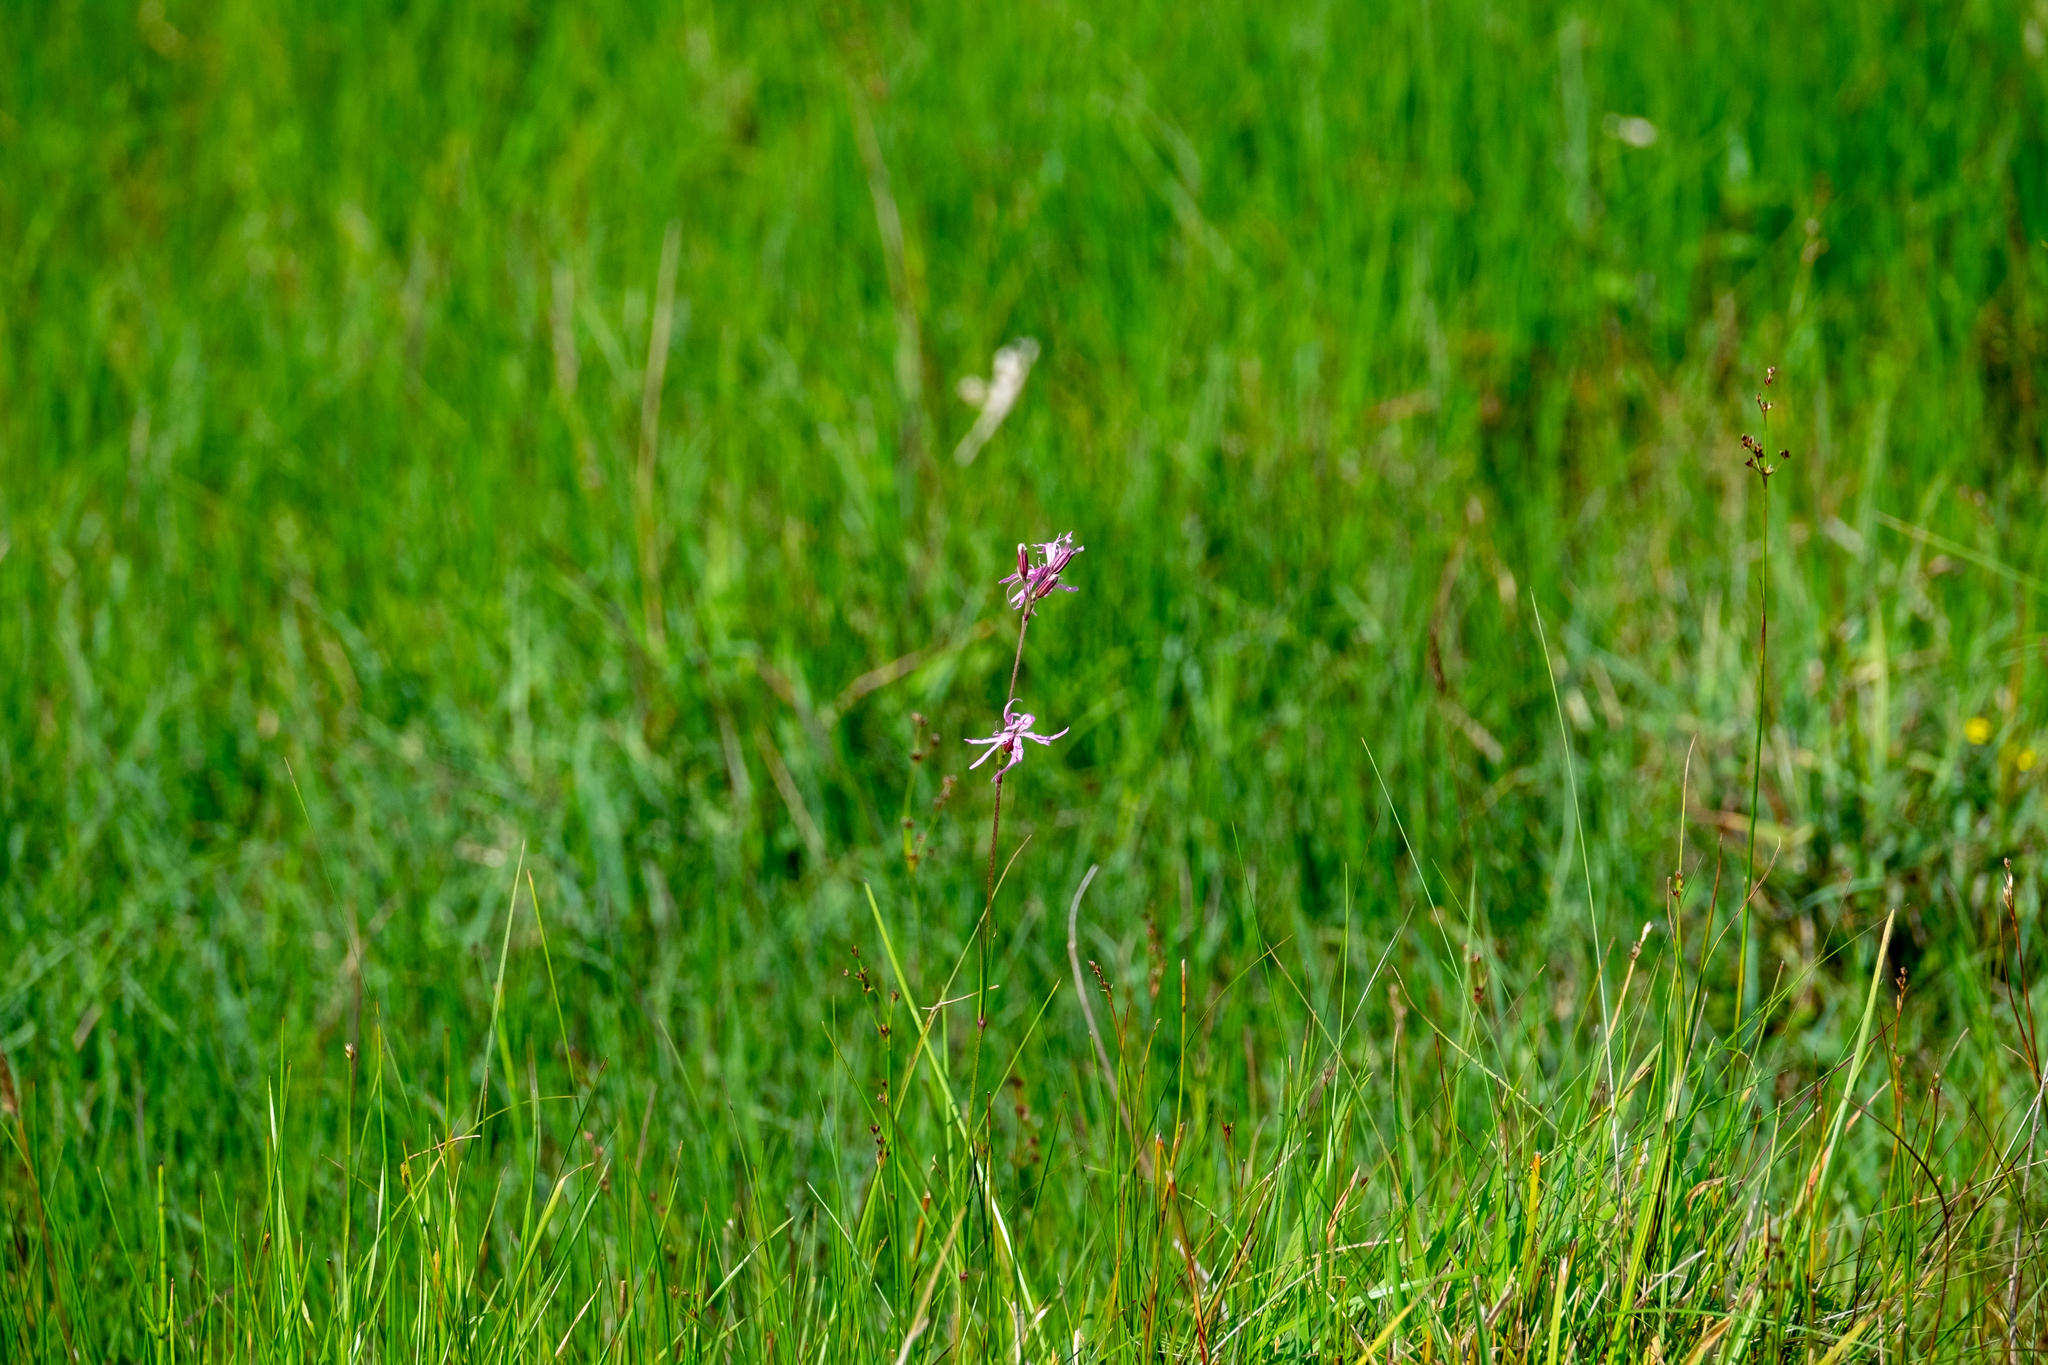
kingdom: Plantae
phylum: Tracheophyta
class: Magnoliopsida
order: Caryophyllales
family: Caryophyllaceae
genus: Silene
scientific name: Silene flos-cuculi
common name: Ragged-robin
